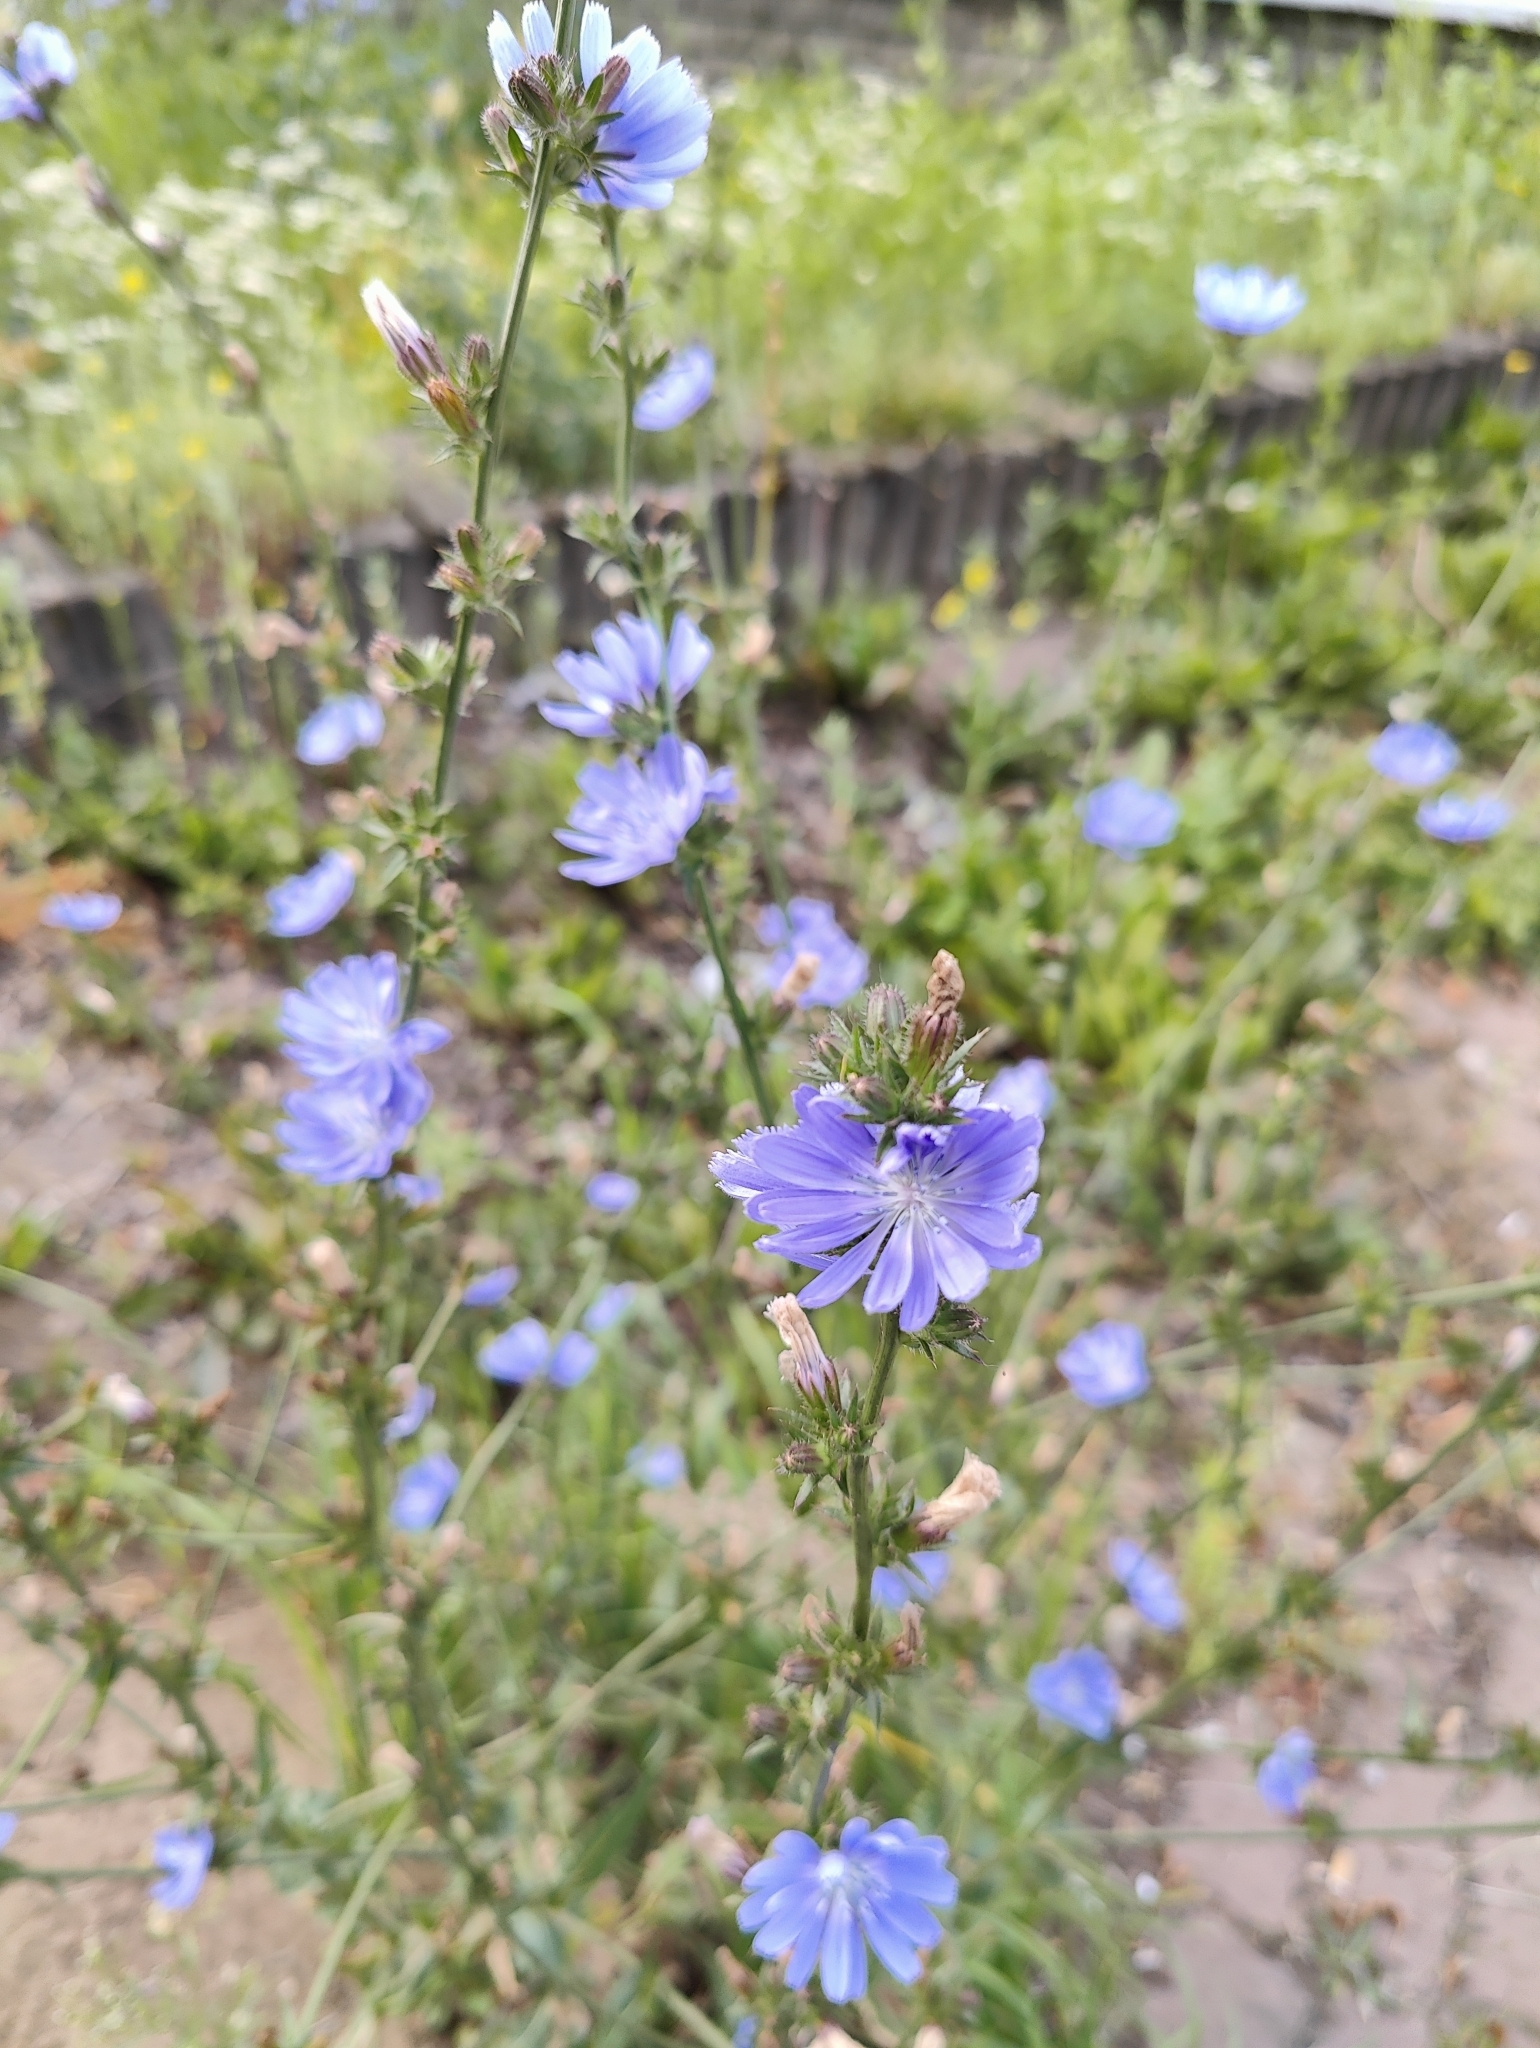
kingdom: Plantae
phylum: Tracheophyta
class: Magnoliopsida
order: Asterales
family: Asteraceae
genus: Cichorium
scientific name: Cichorium intybus
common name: Chicory
